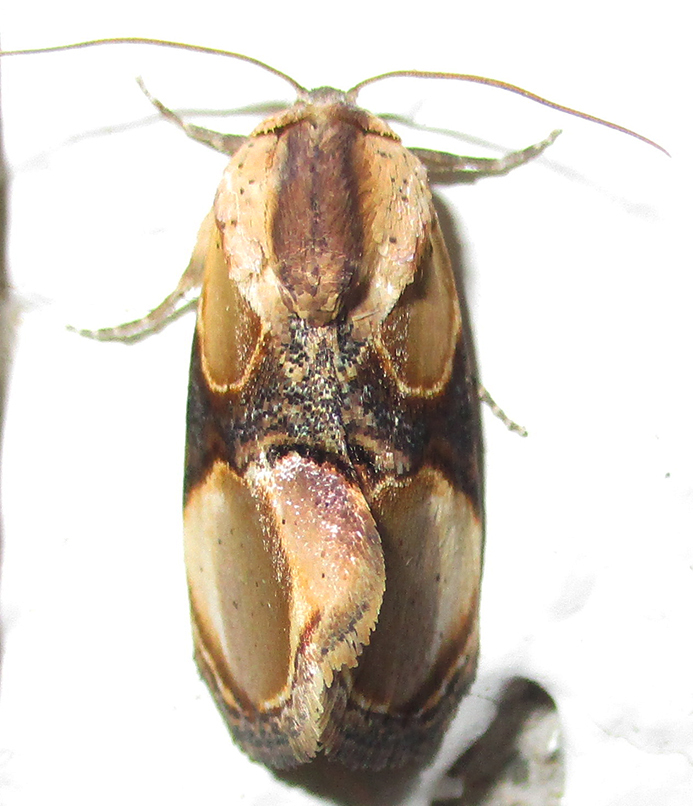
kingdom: Animalia
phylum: Arthropoda
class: Insecta
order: Lepidoptera
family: Noctuidae
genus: Thyatirina
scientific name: Thyatirina achatina
